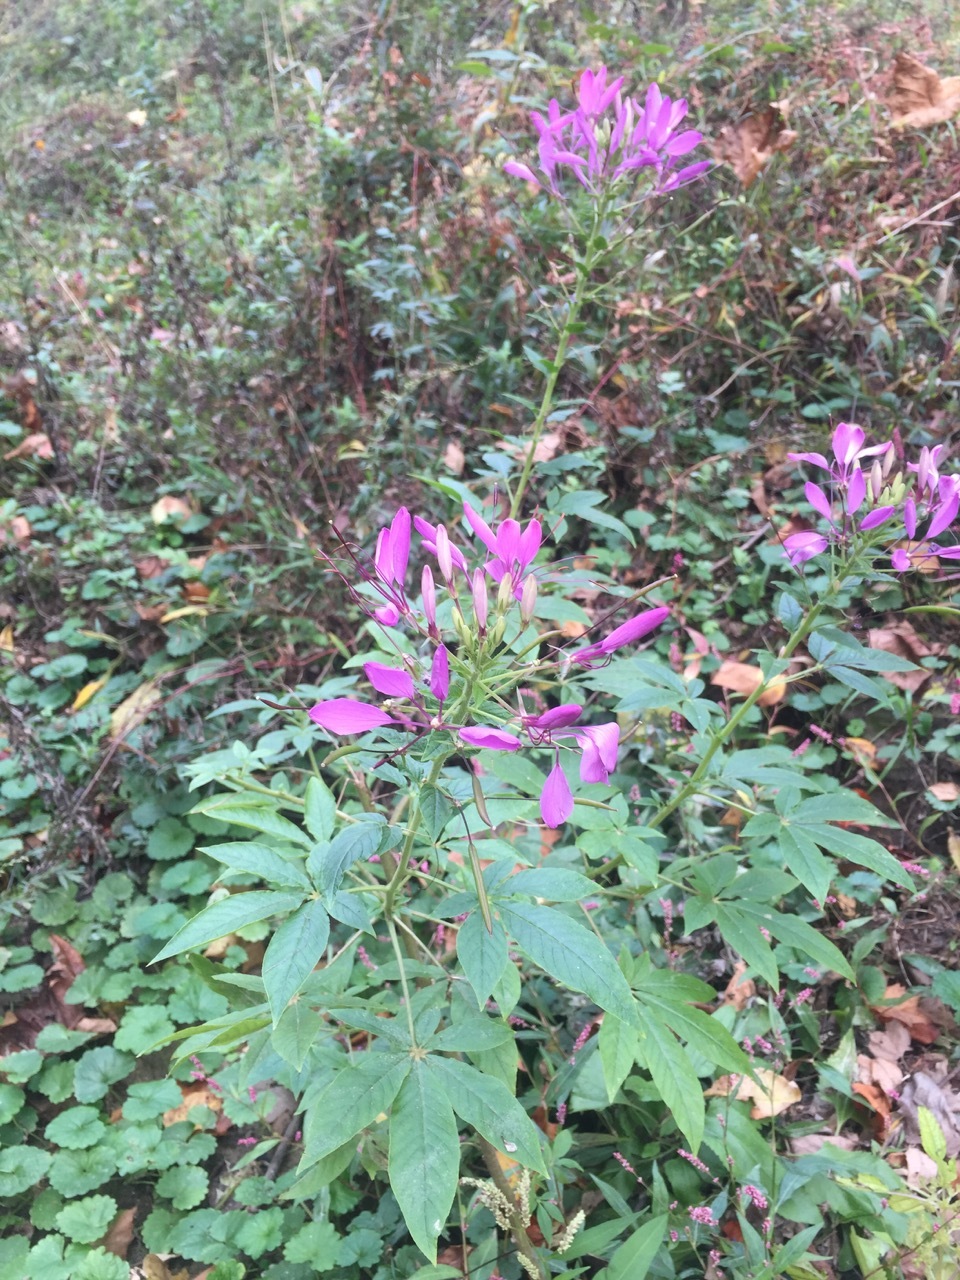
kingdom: Plantae
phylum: Tracheophyta
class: Magnoliopsida
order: Brassicales
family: Cleomaceae
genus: Tarenaya
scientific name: Tarenaya houtteana
